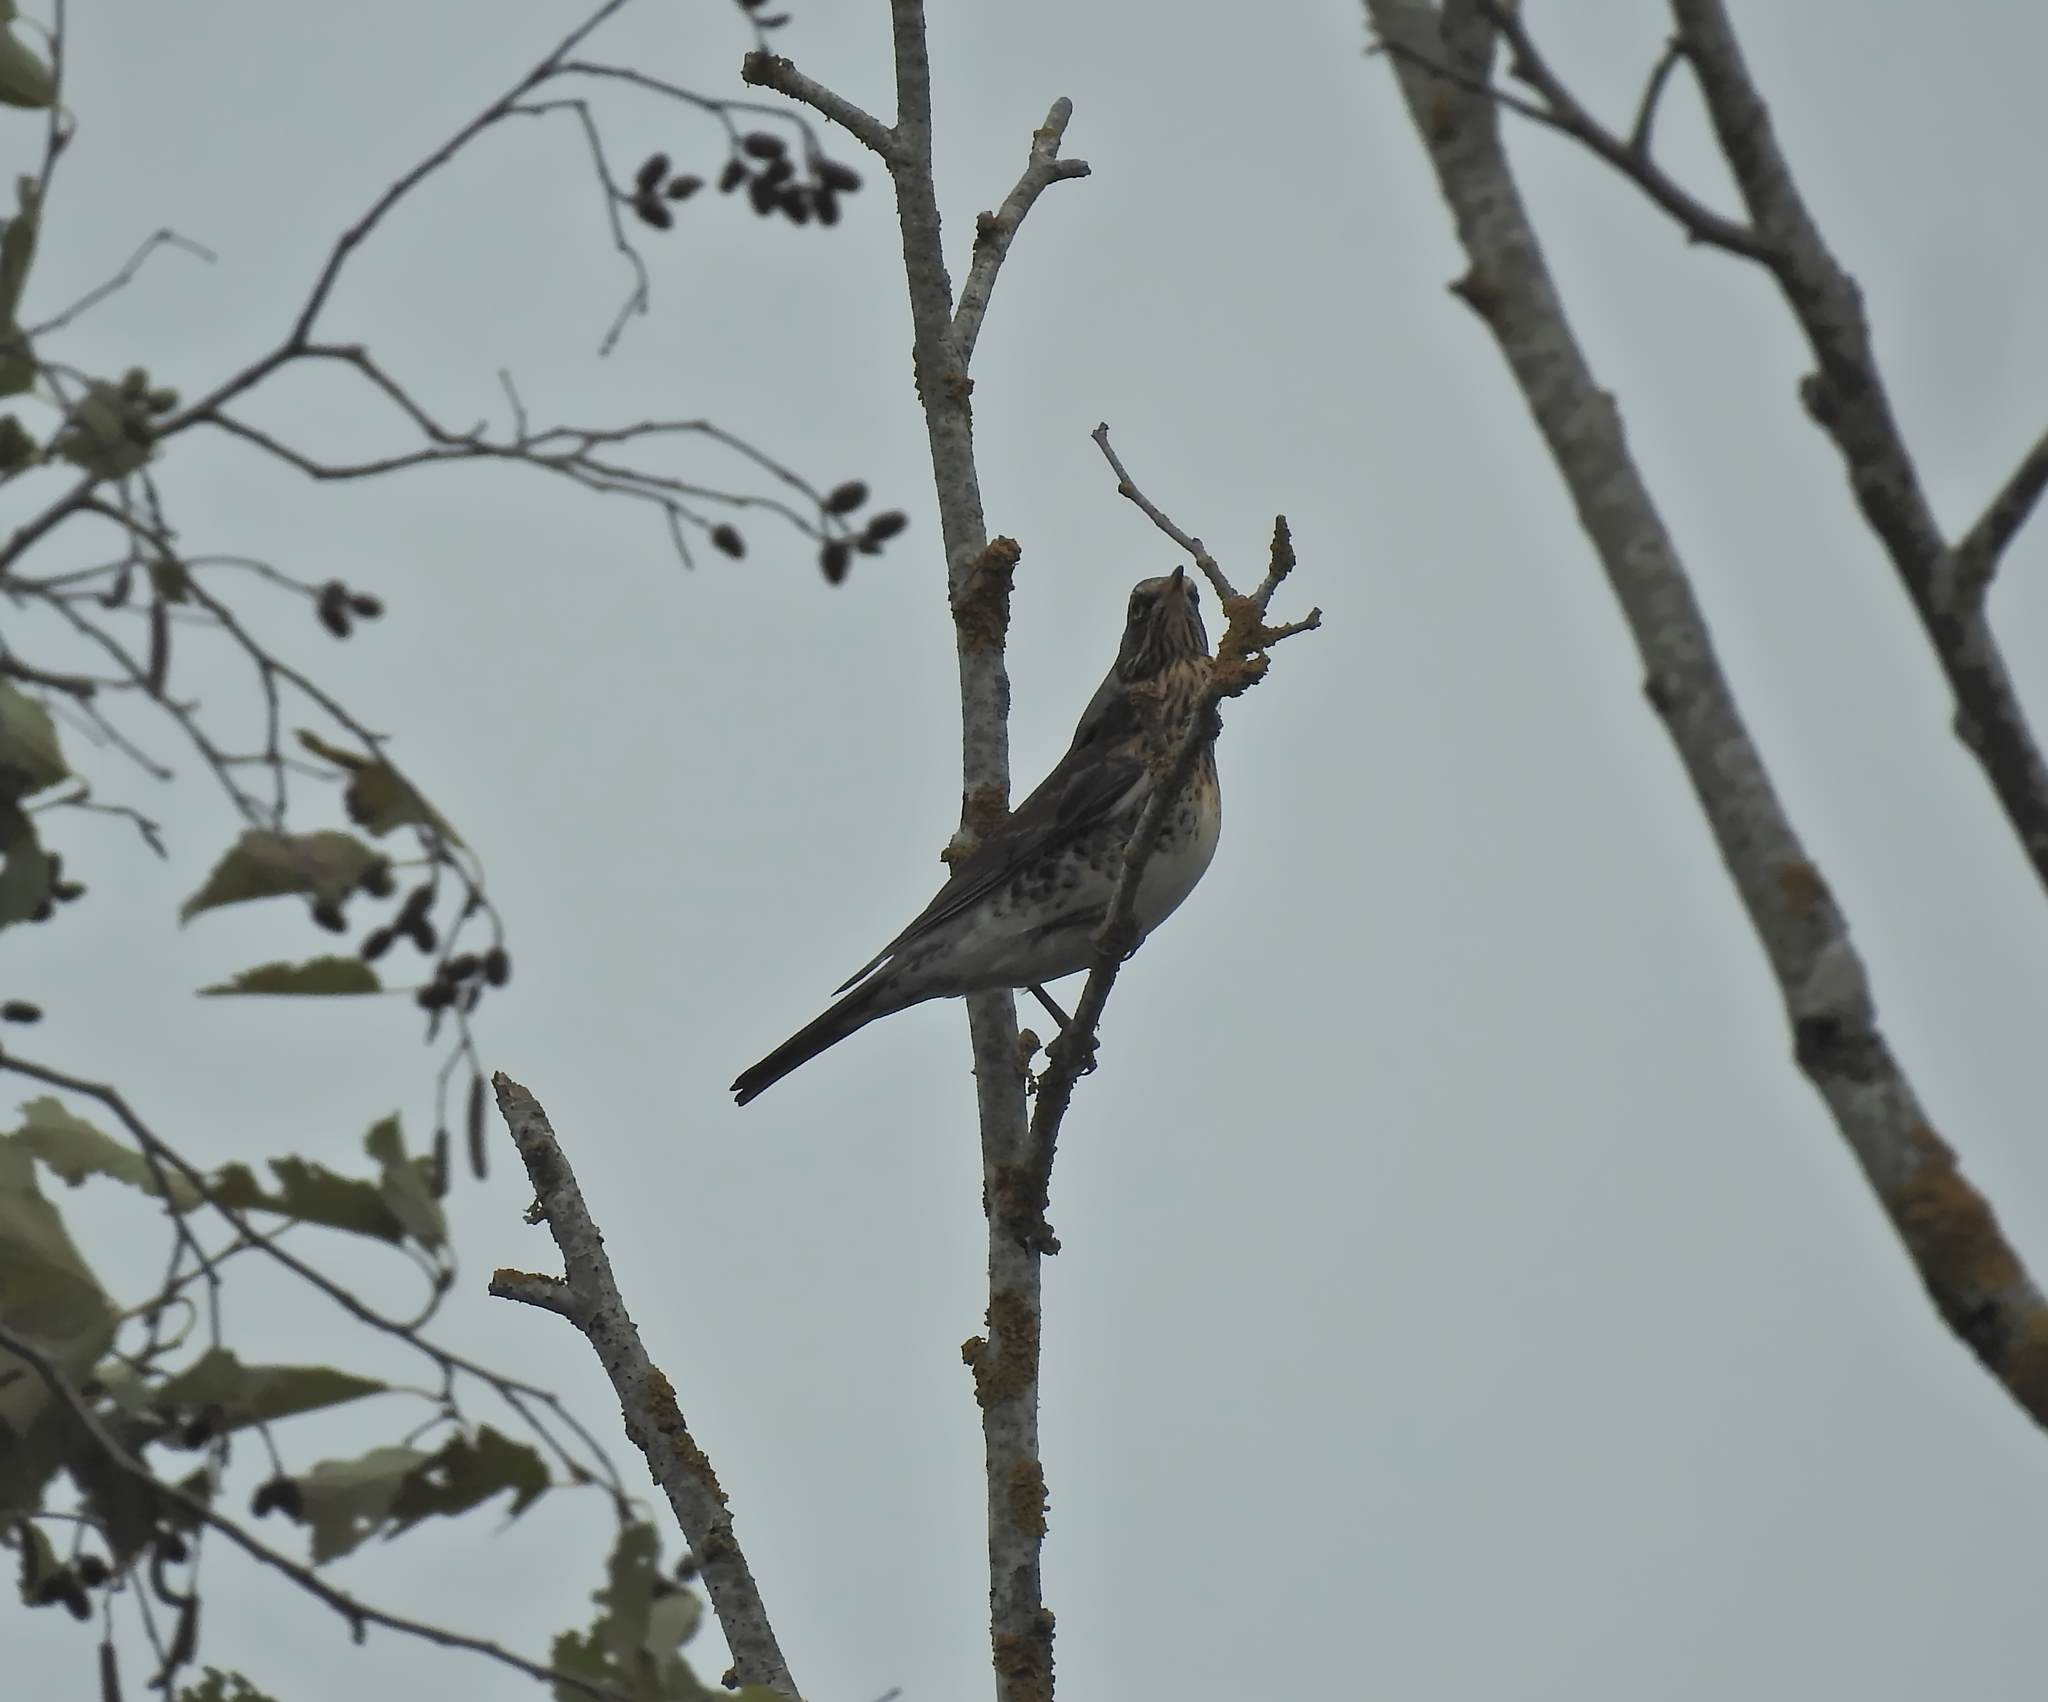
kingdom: Animalia
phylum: Chordata
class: Aves
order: Passeriformes
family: Turdidae
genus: Turdus
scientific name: Turdus pilaris
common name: Fieldfare
